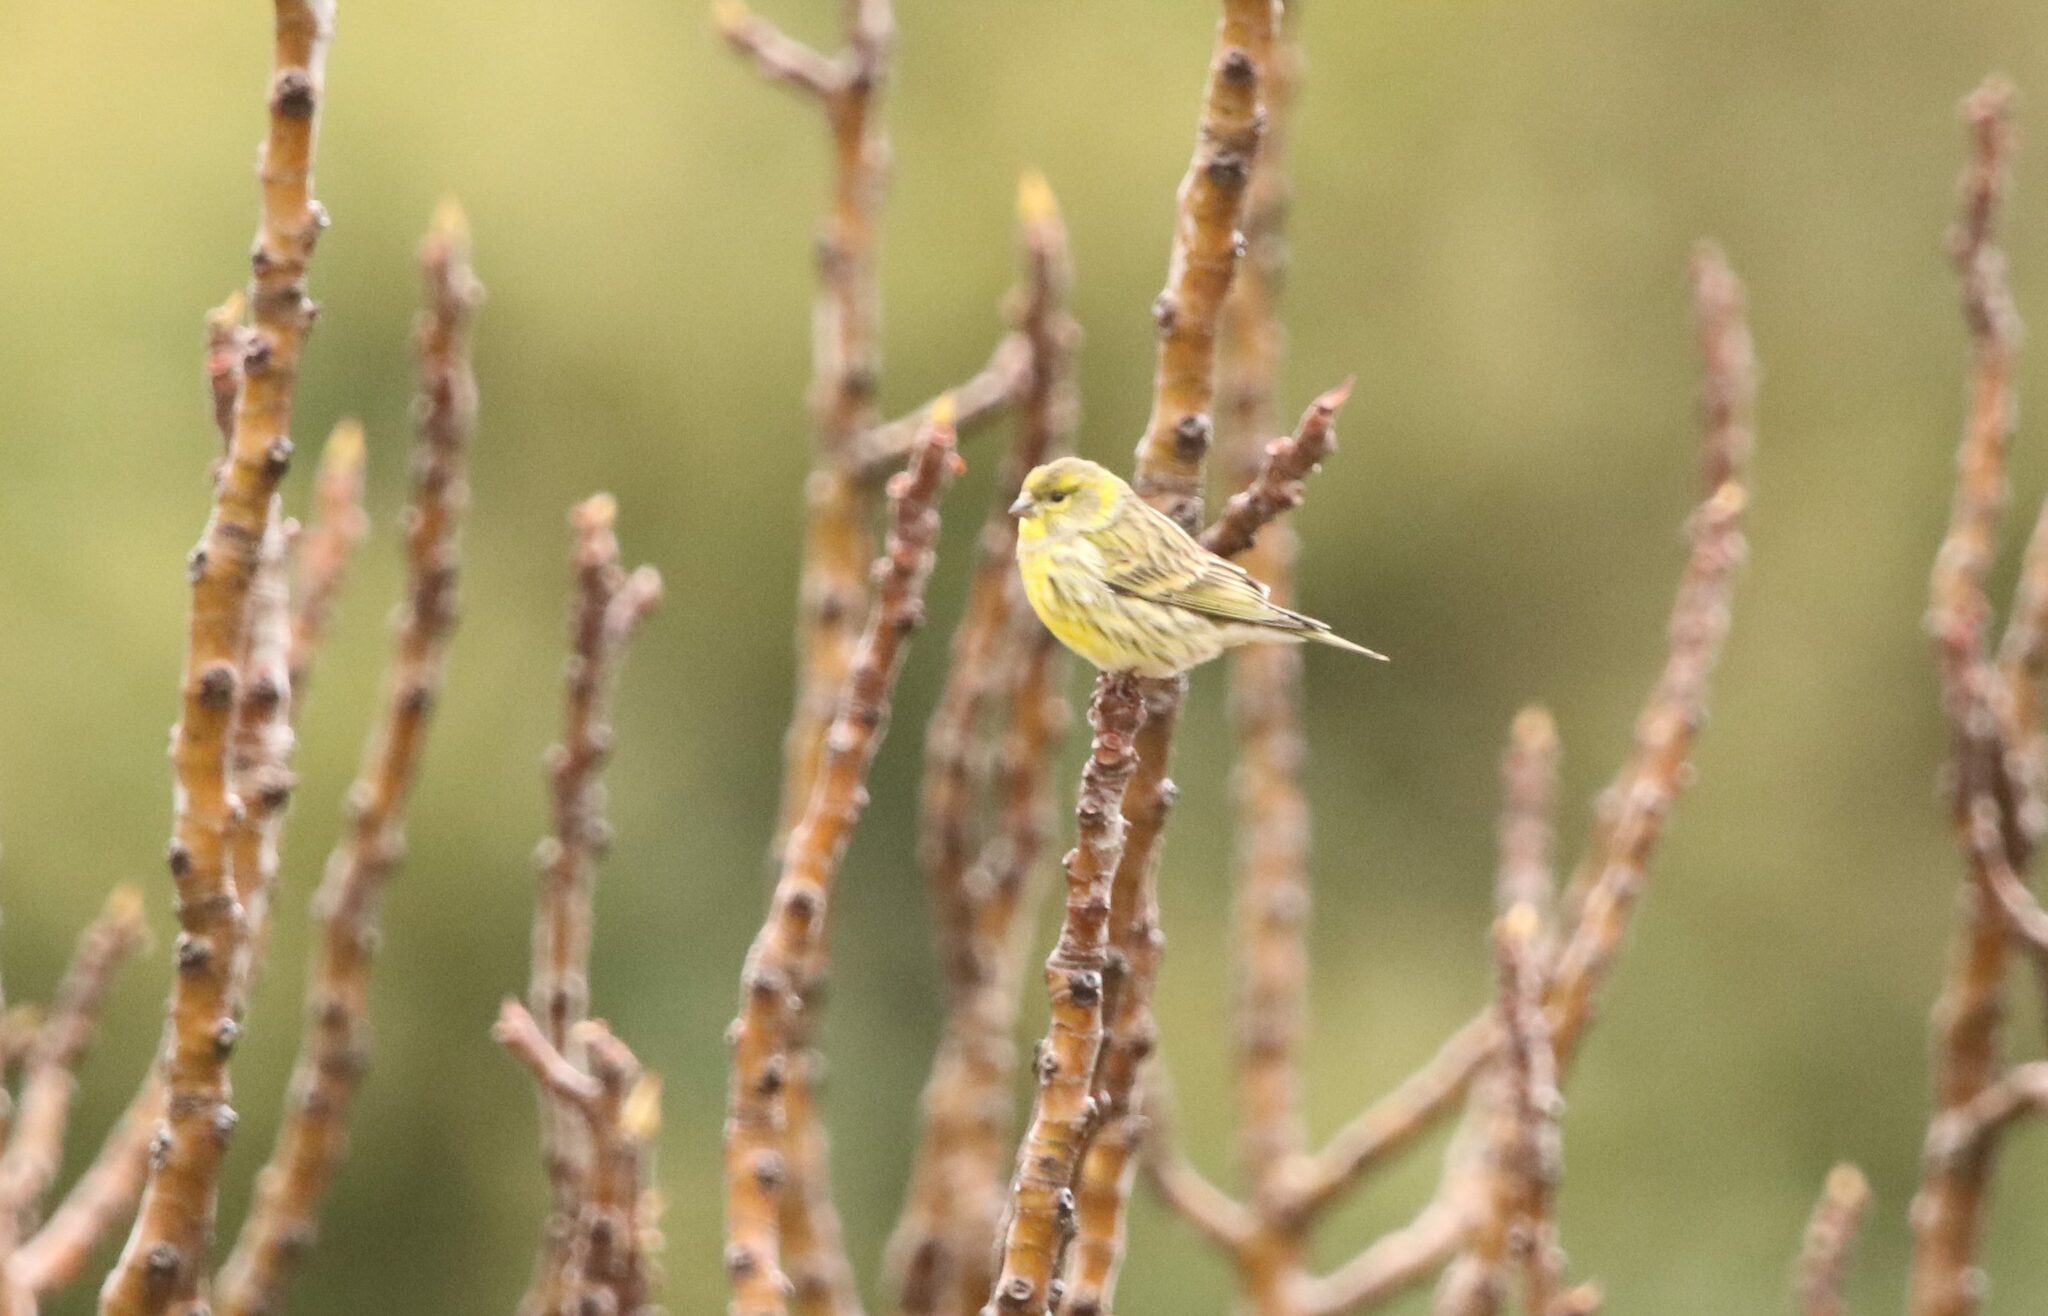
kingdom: Animalia
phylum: Chordata
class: Aves
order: Passeriformes
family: Fringillidae
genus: Serinus
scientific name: Serinus serinus
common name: European serin
